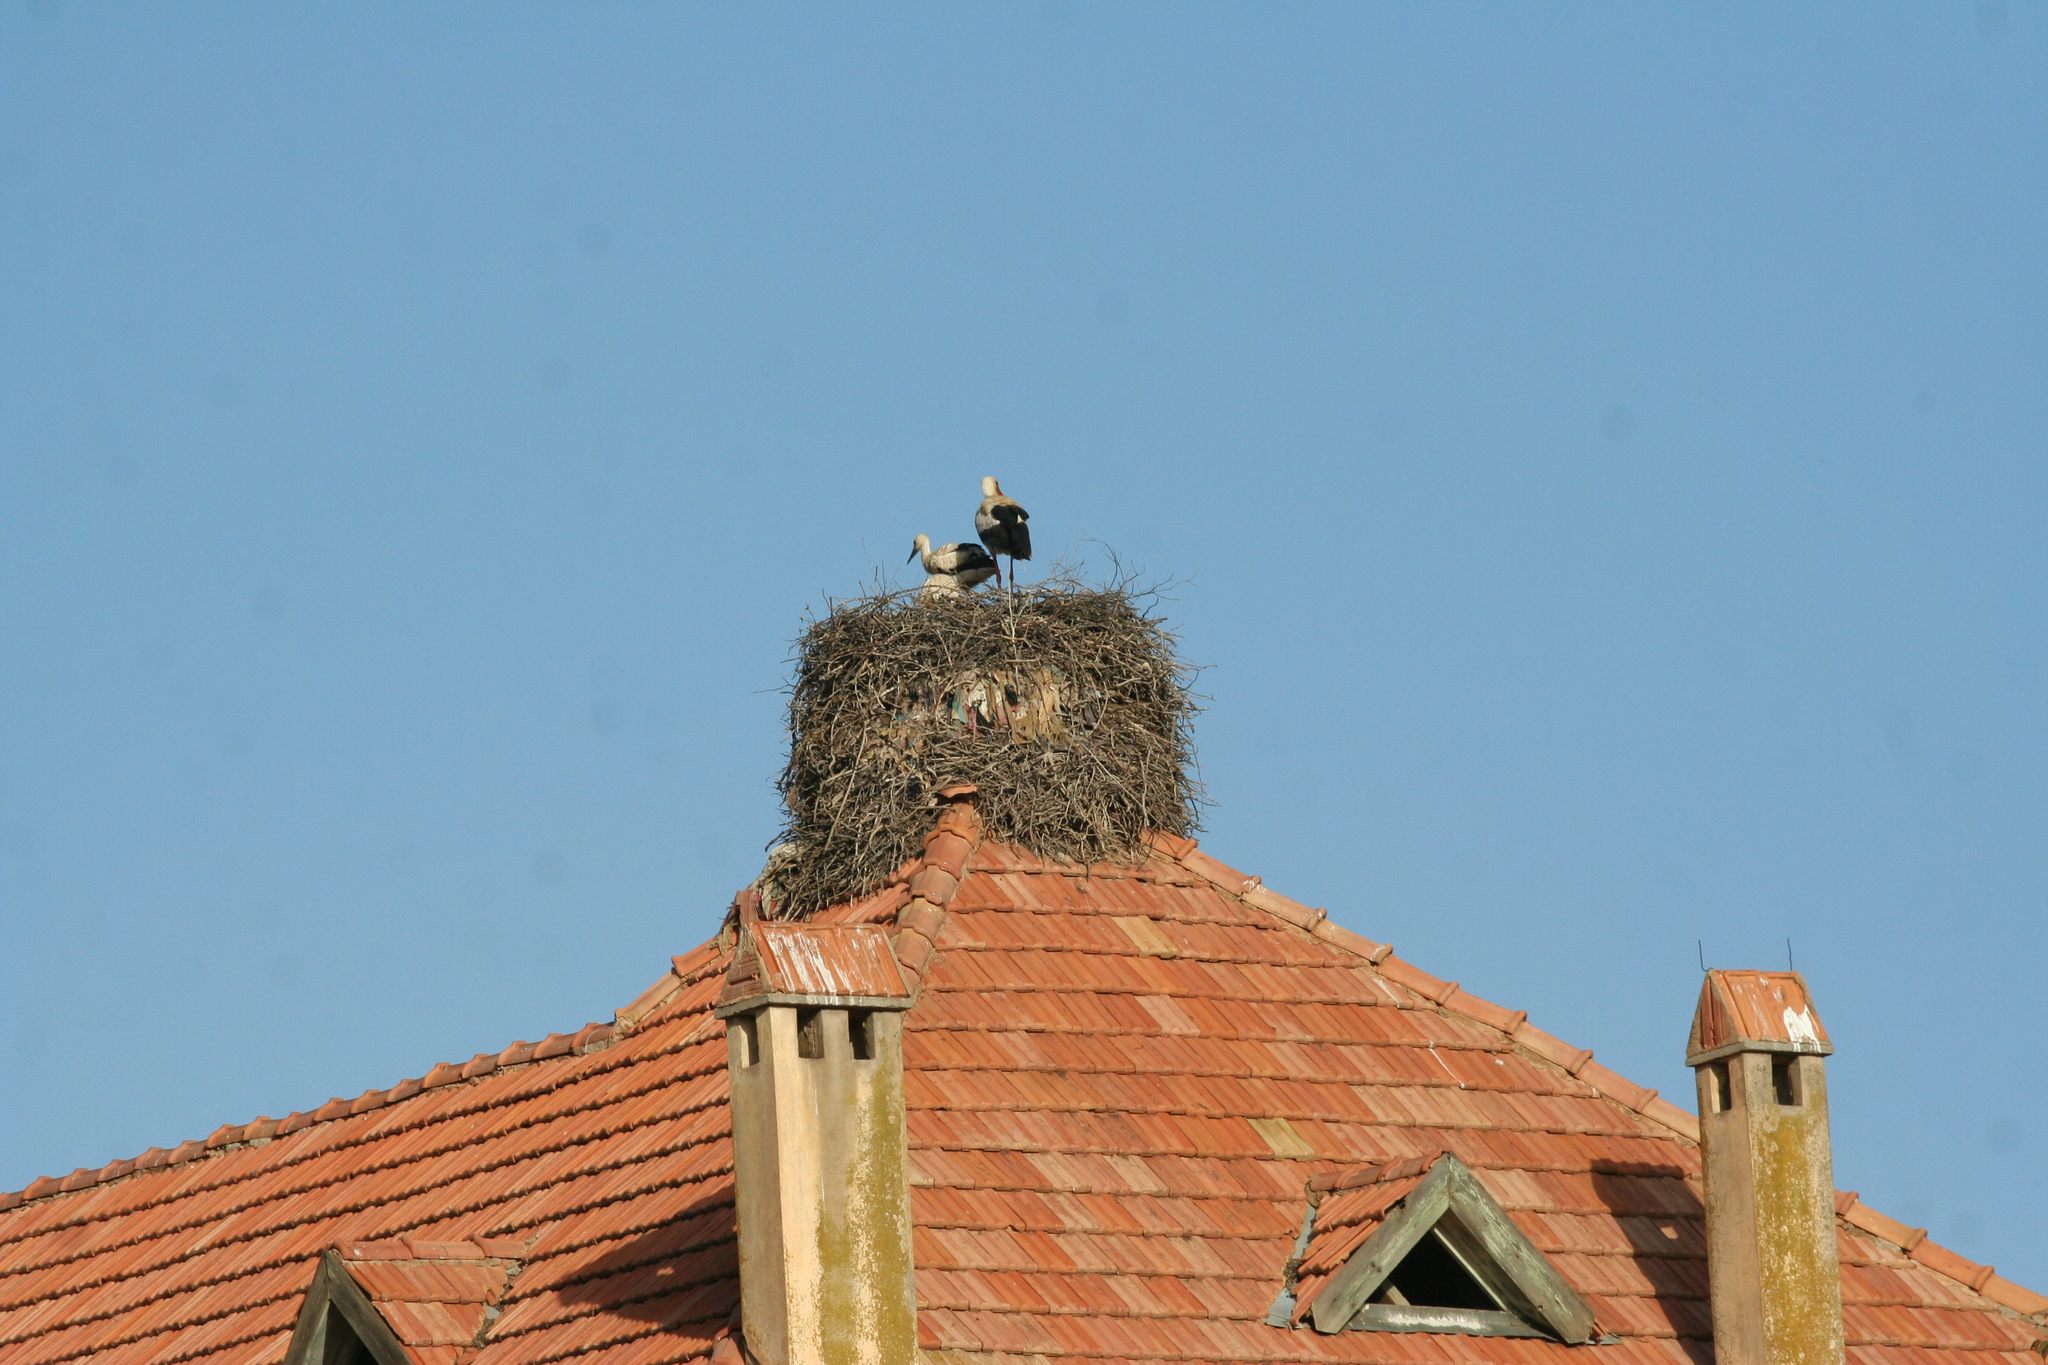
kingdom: Animalia
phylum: Chordata
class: Aves
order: Ciconiiformes
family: Ciconiidae
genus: Ciconia
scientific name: Ciconia ciconia
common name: White stork
